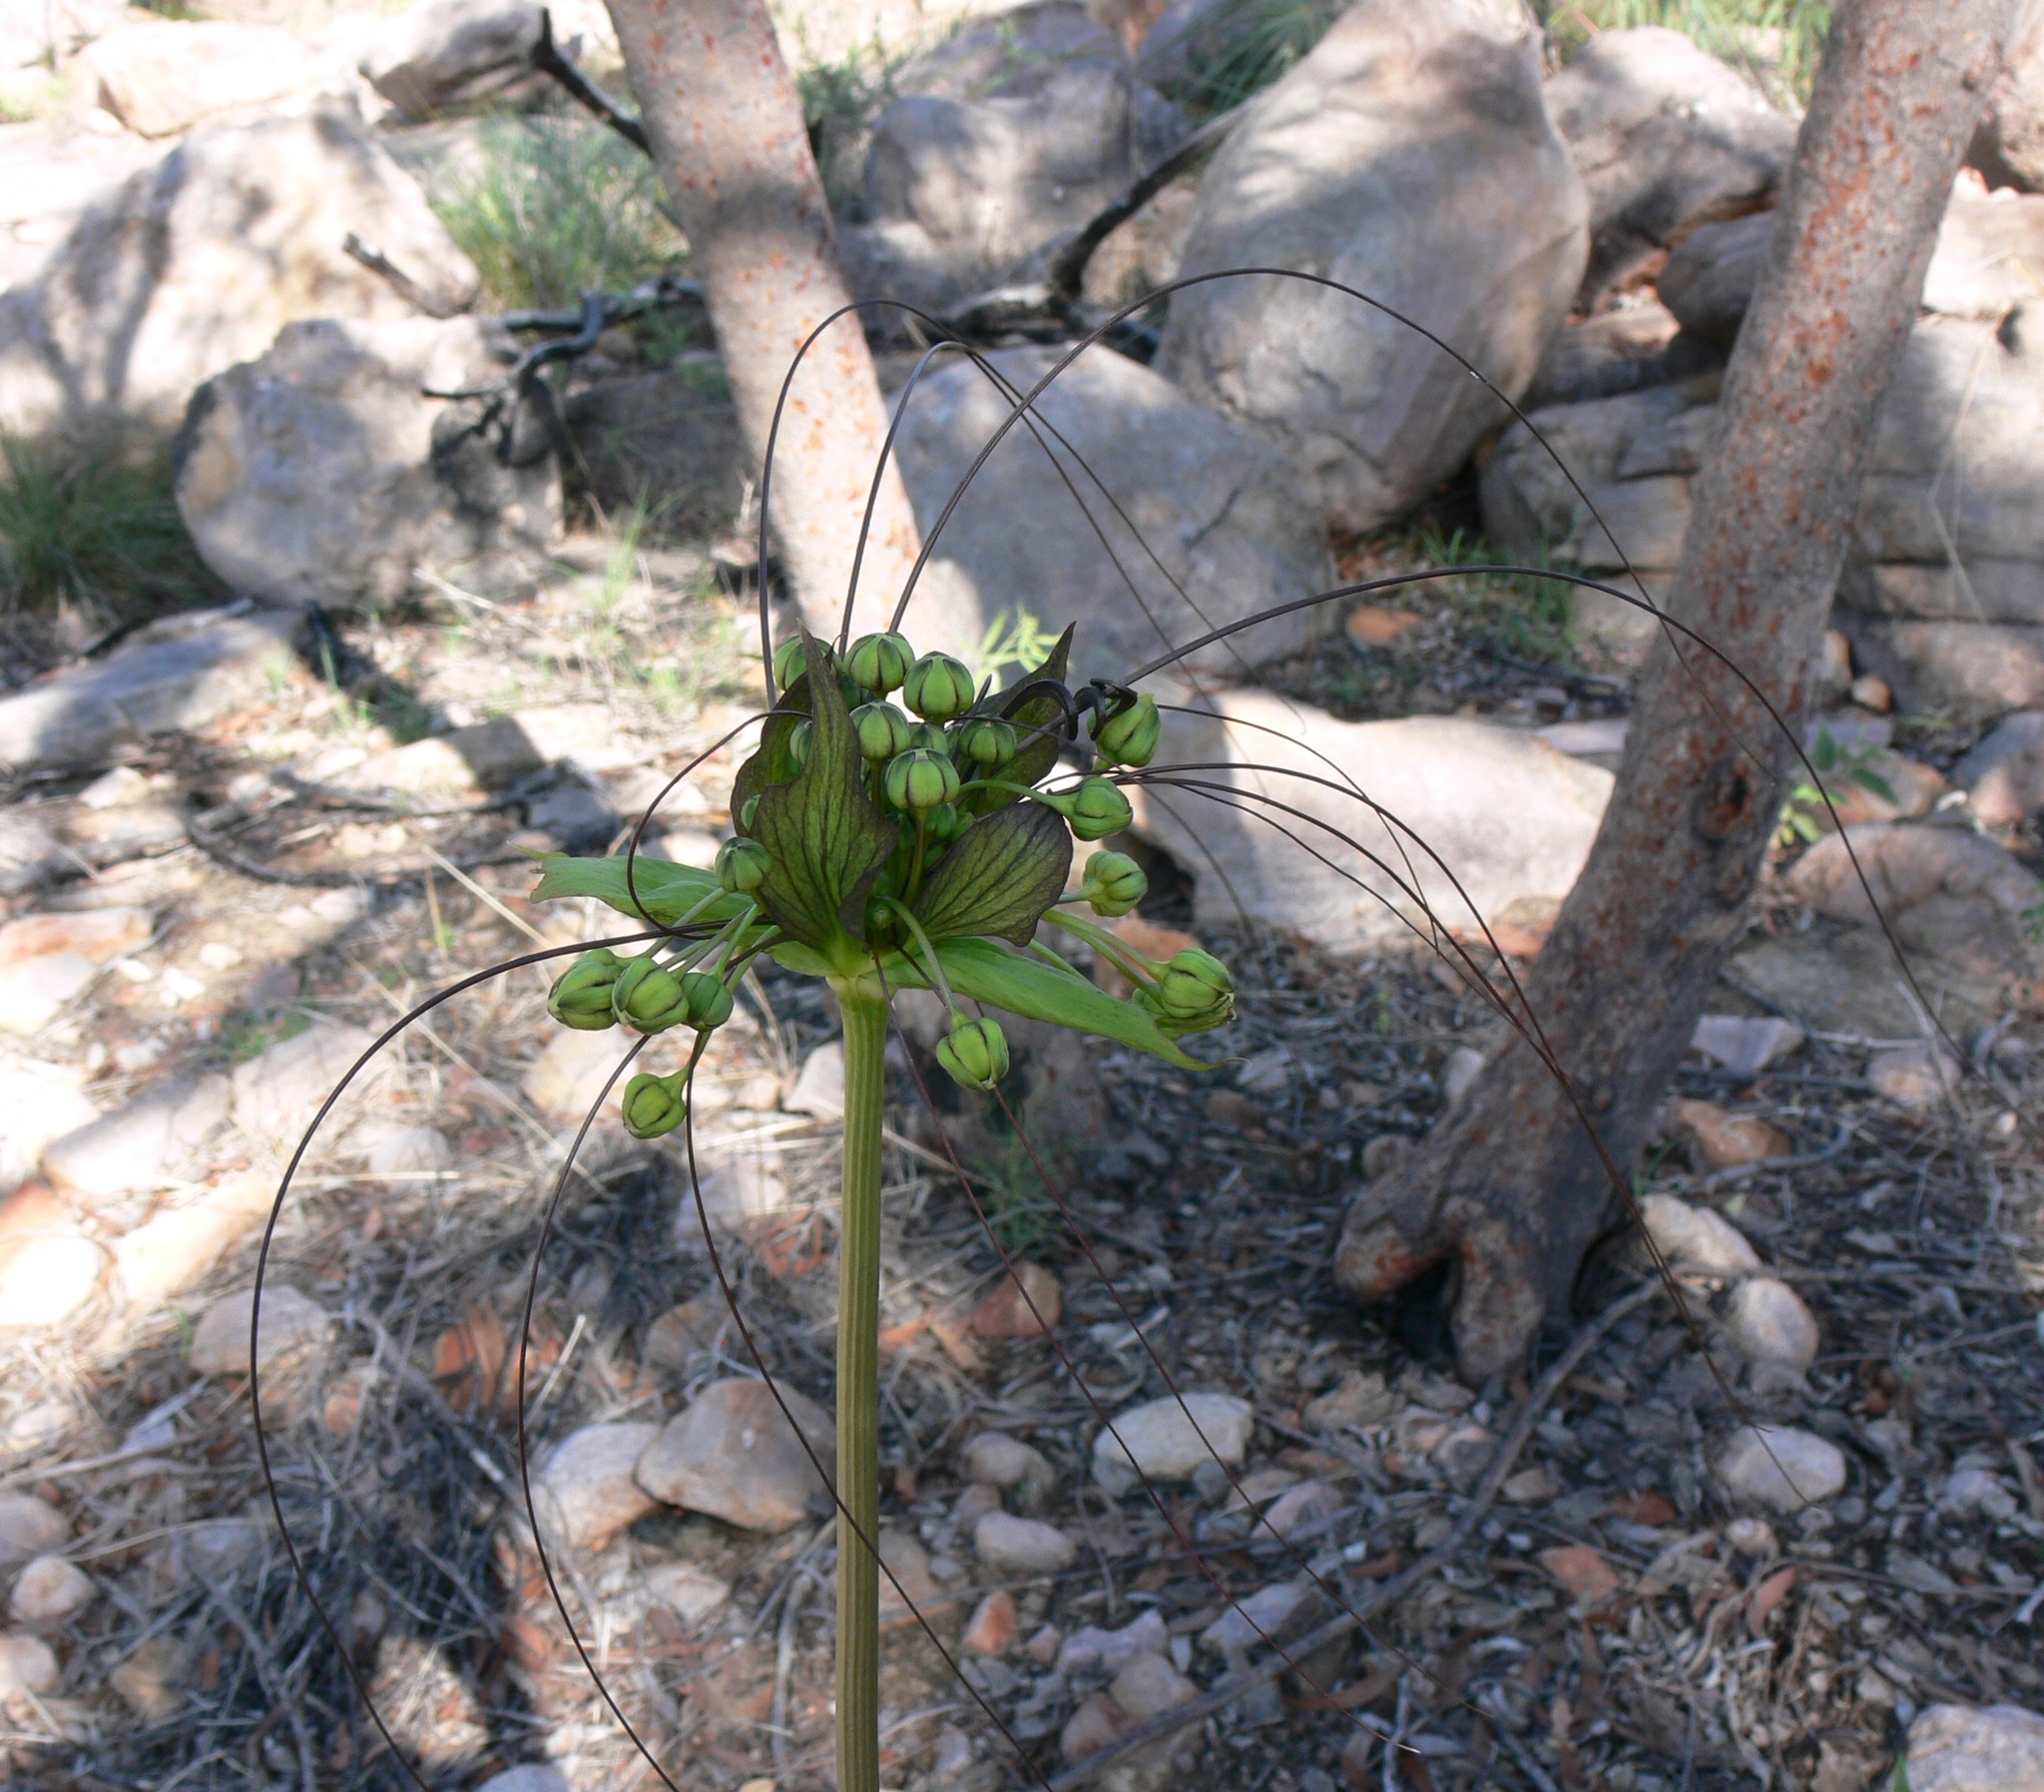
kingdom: Plantae
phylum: Tracheophyta
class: Liliopsida
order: Dioscoreales
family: Dioscoreaceae
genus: Tacca
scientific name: Tacca leontopetaloides
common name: Arrowroot
